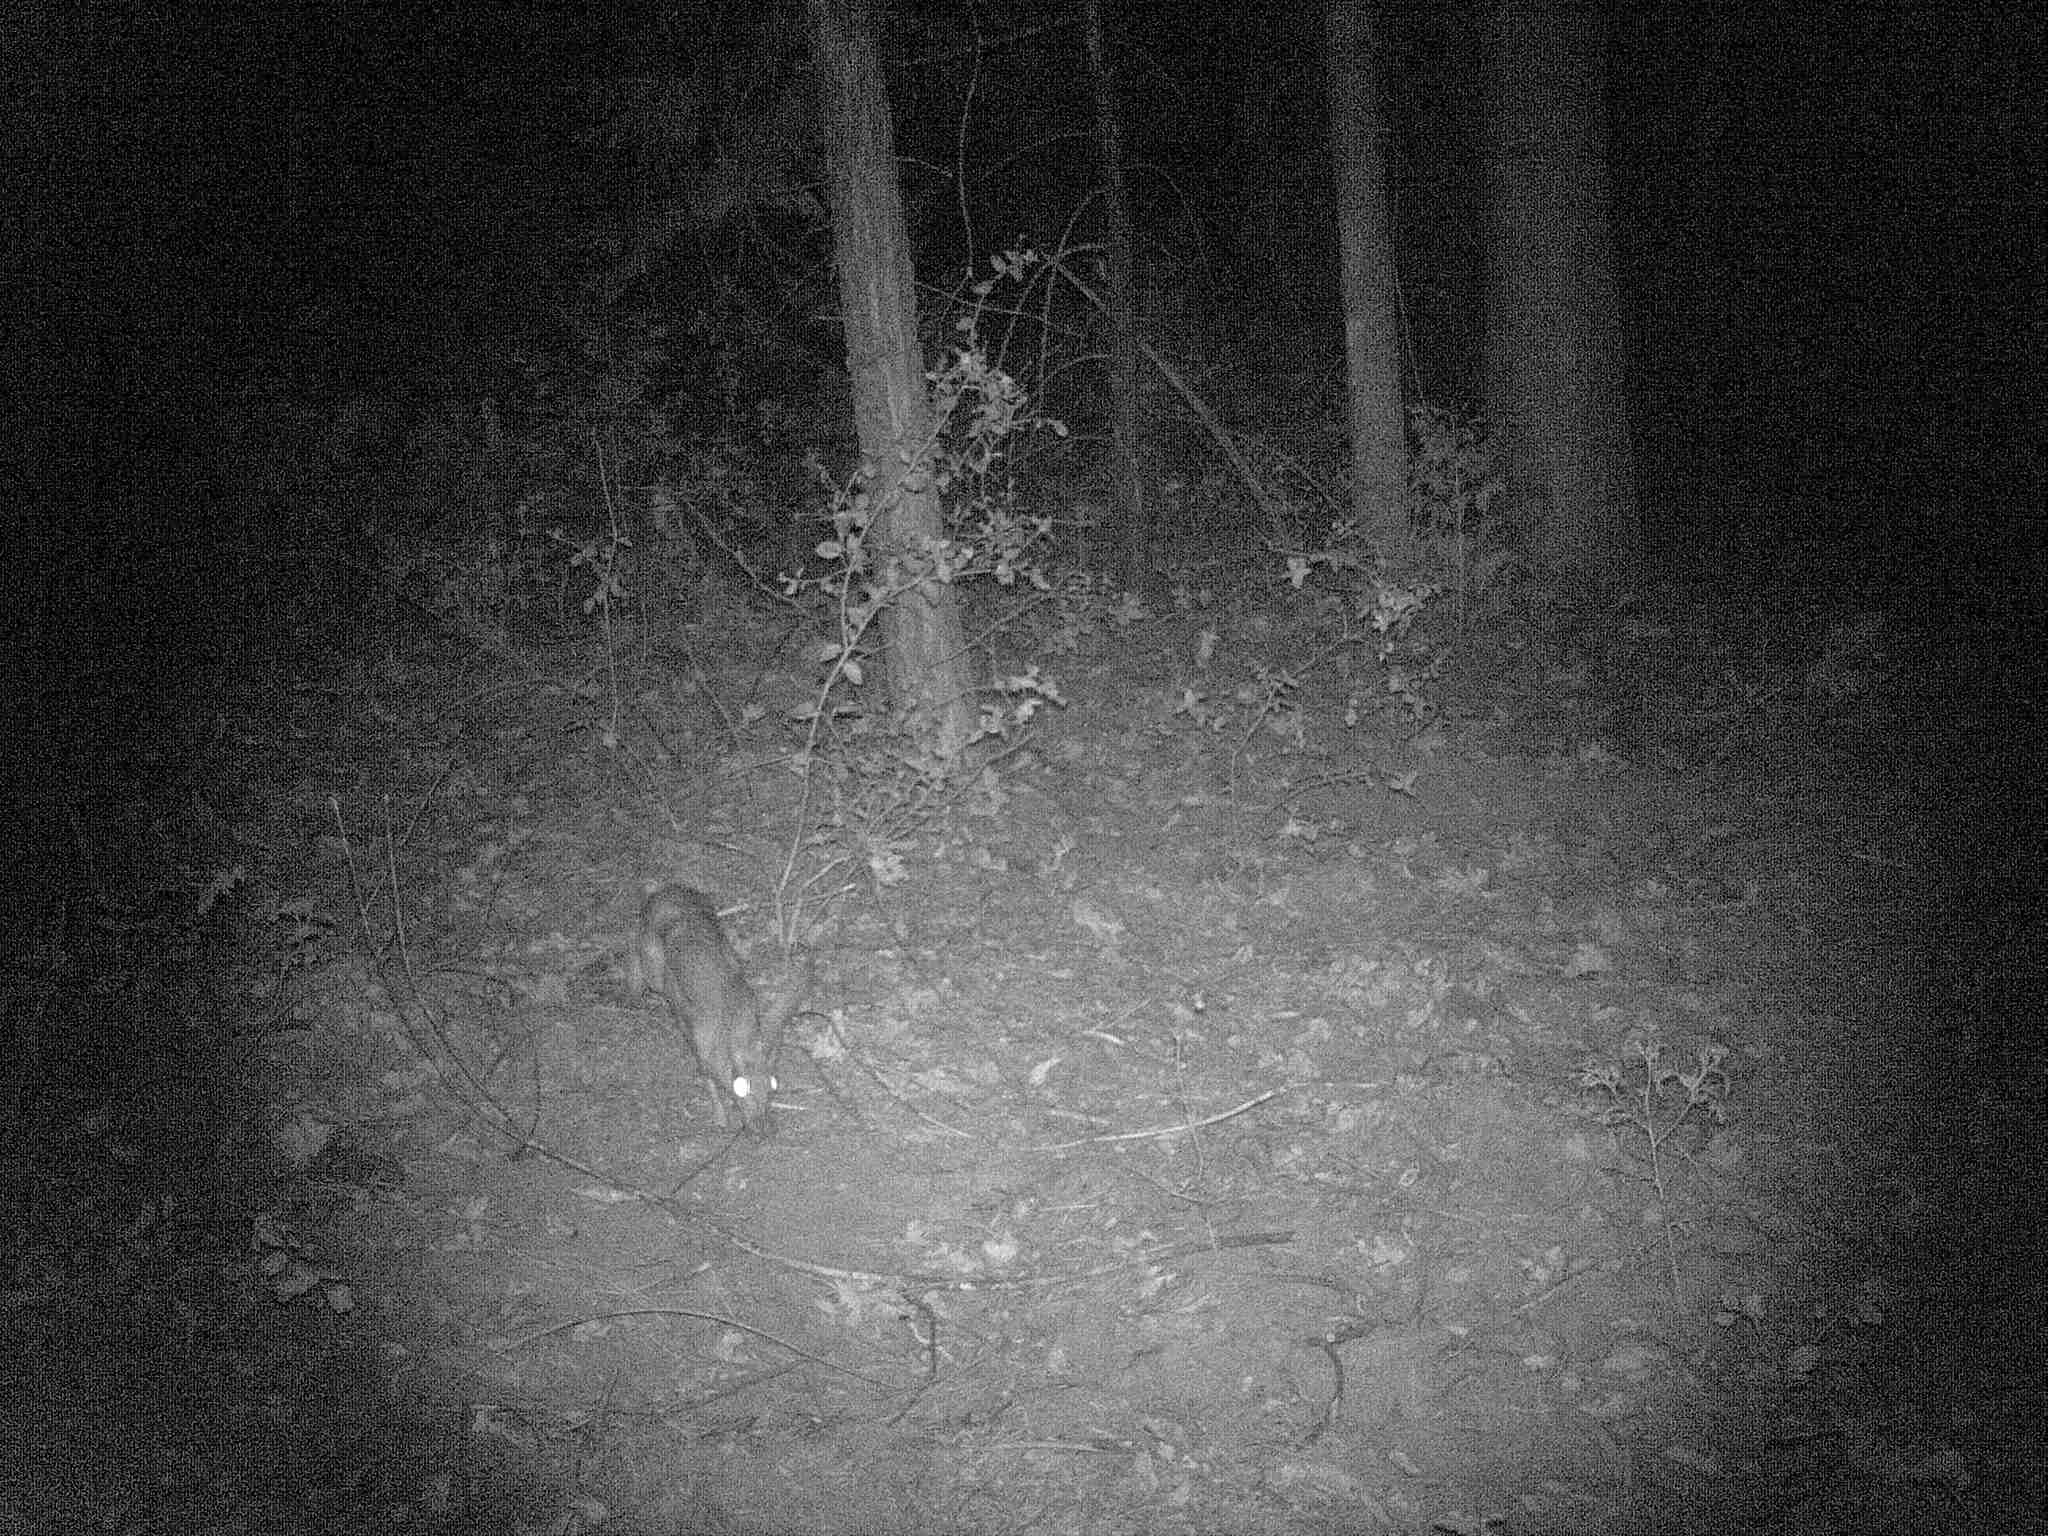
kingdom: Animalia
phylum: Chordata
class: Mammalia
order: Lagomorpha
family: Leporidae
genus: Lepus
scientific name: Lepus californicus
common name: Black-tailed jackrabbit
